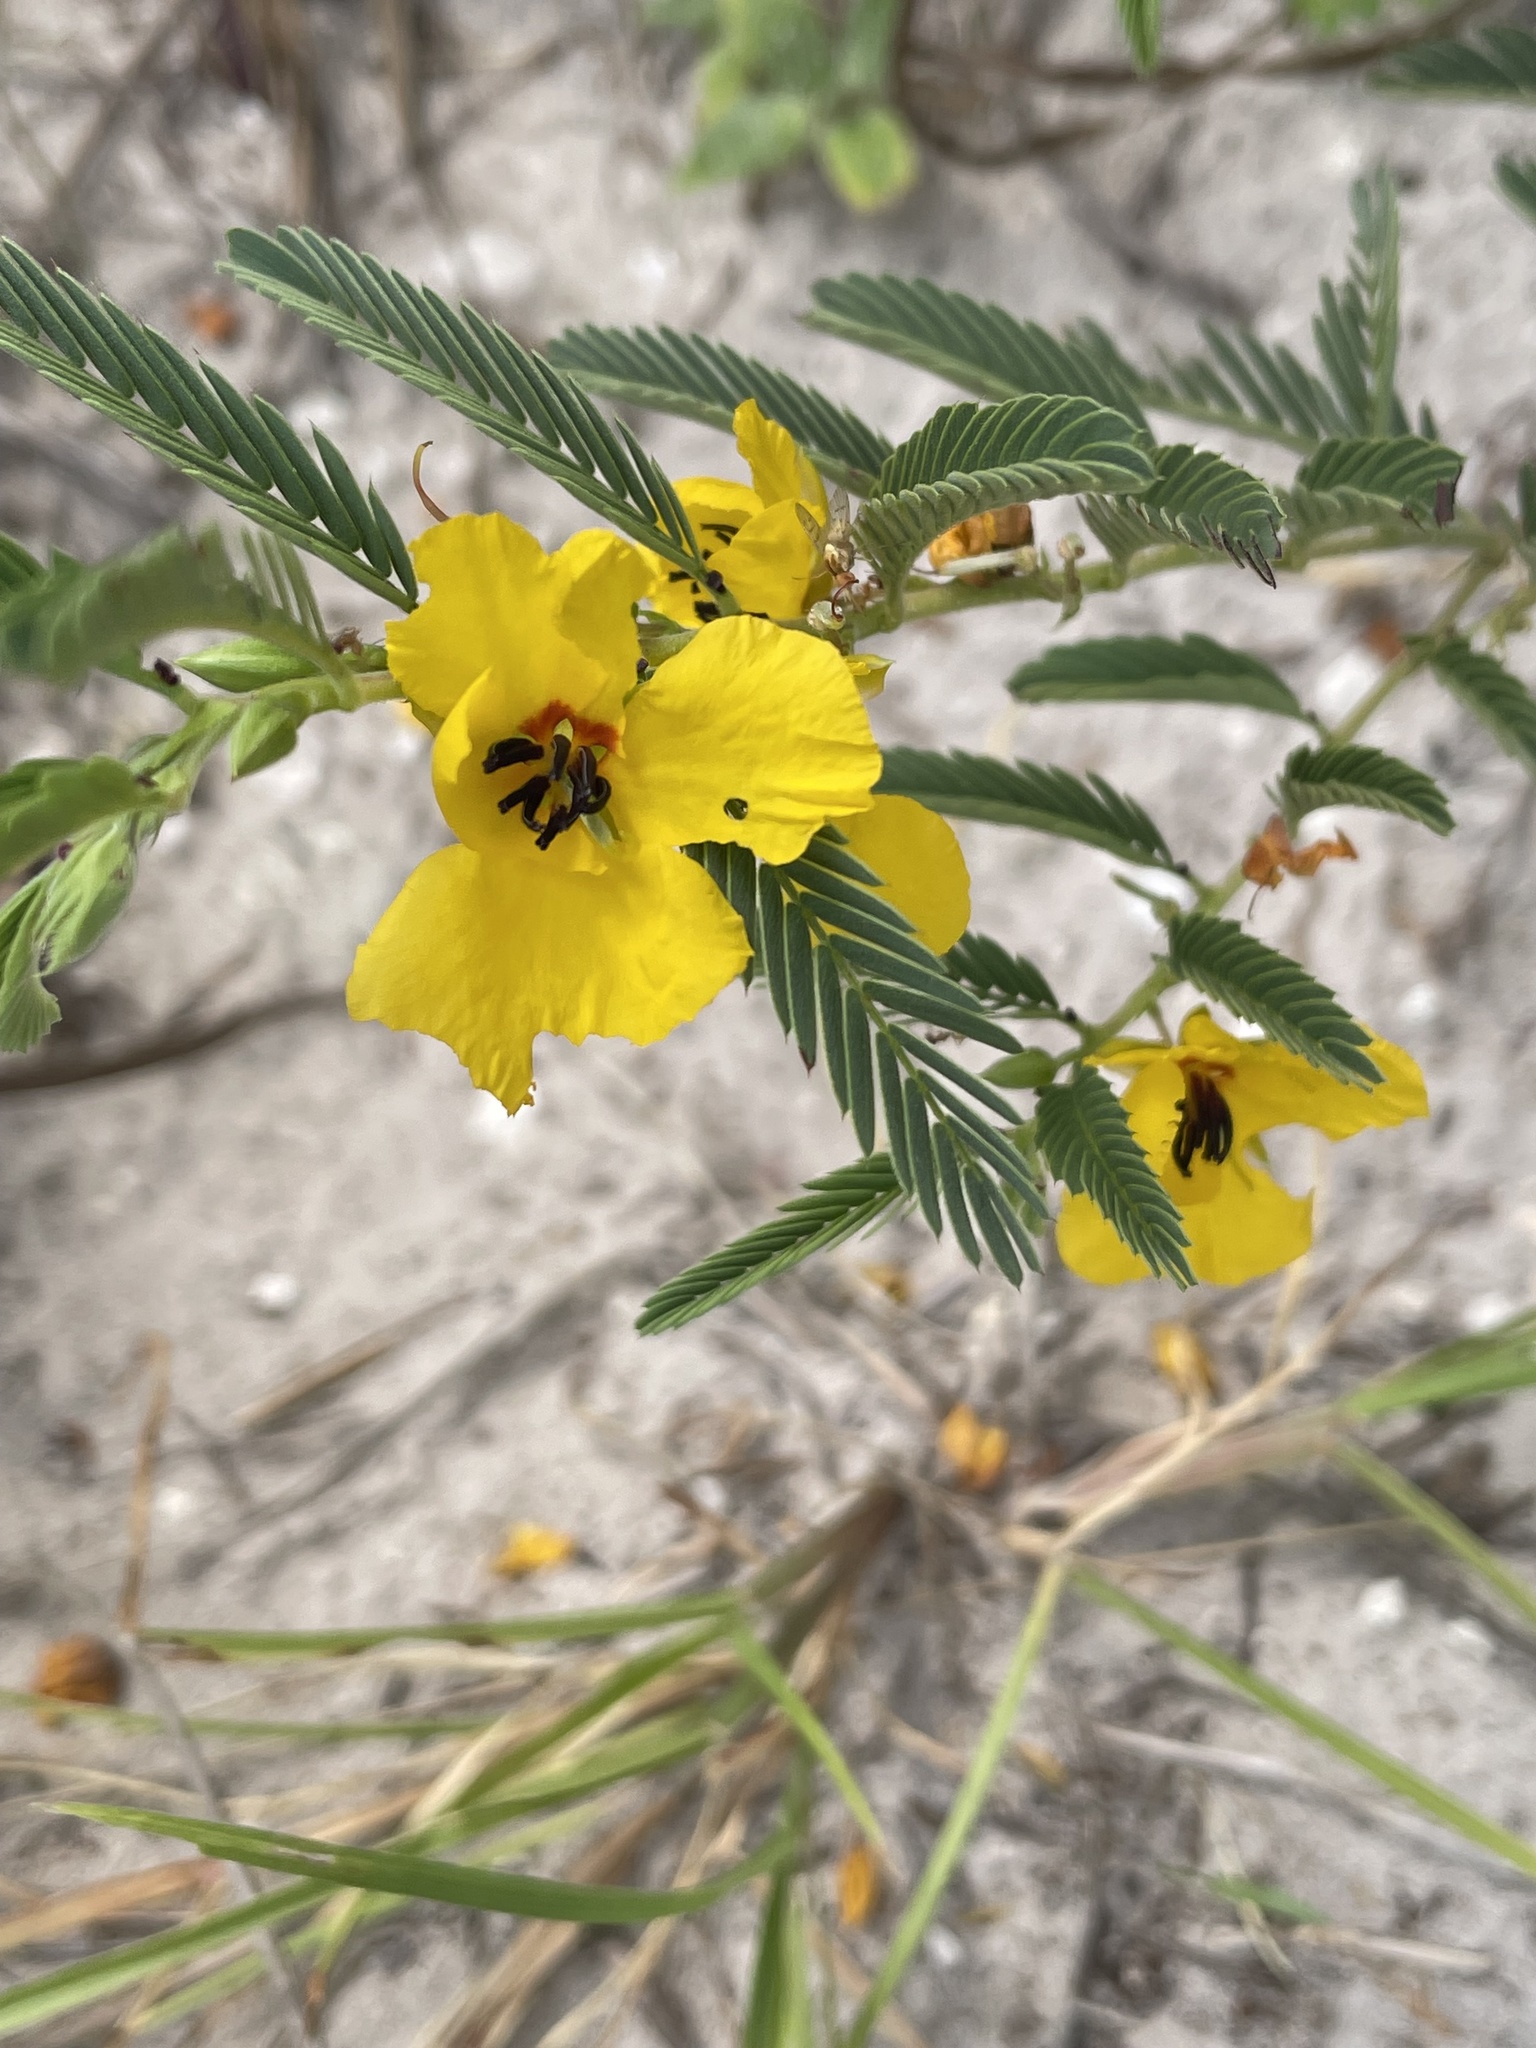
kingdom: Plantae
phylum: Tracheophyta
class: Magnoliopsida
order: Fabales
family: Fabaceae
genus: Chamaecrista
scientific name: Chamaecrista fasciculata
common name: Golden cassia
